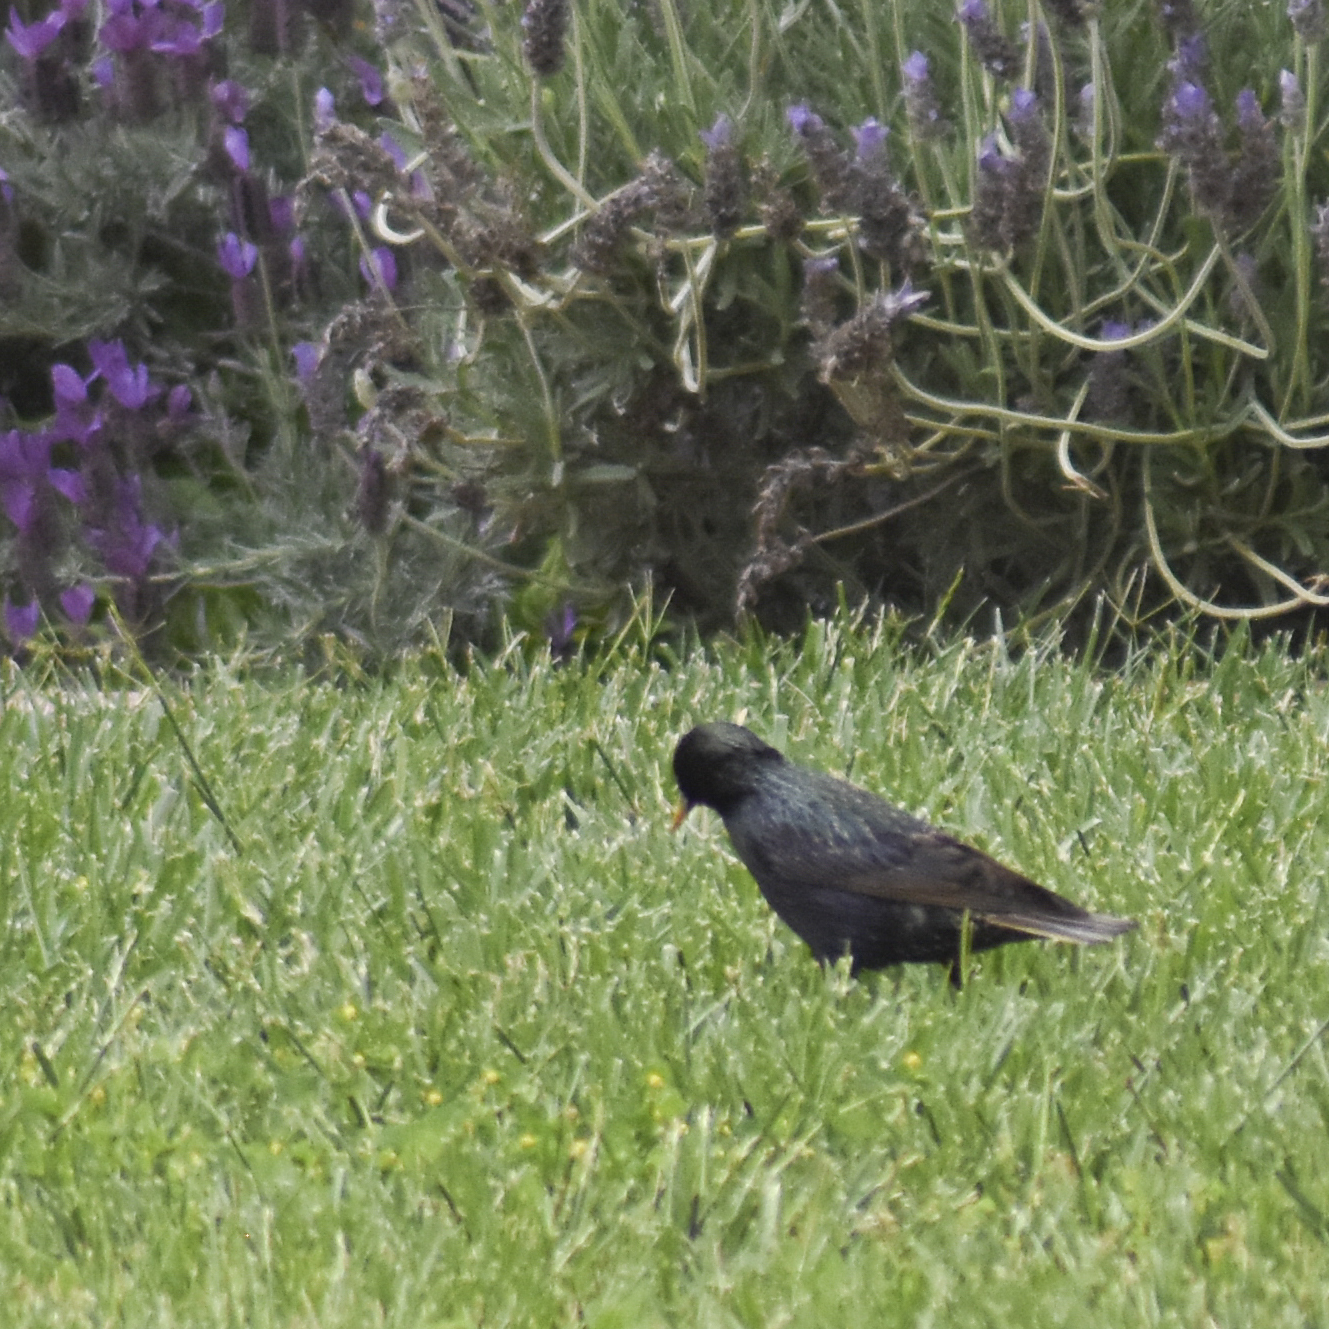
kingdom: Animalia
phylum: Chordata
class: Aves
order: Passeriformes
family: Sturnidae
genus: Sturnus
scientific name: Sturnus vulgaris
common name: Common starling
